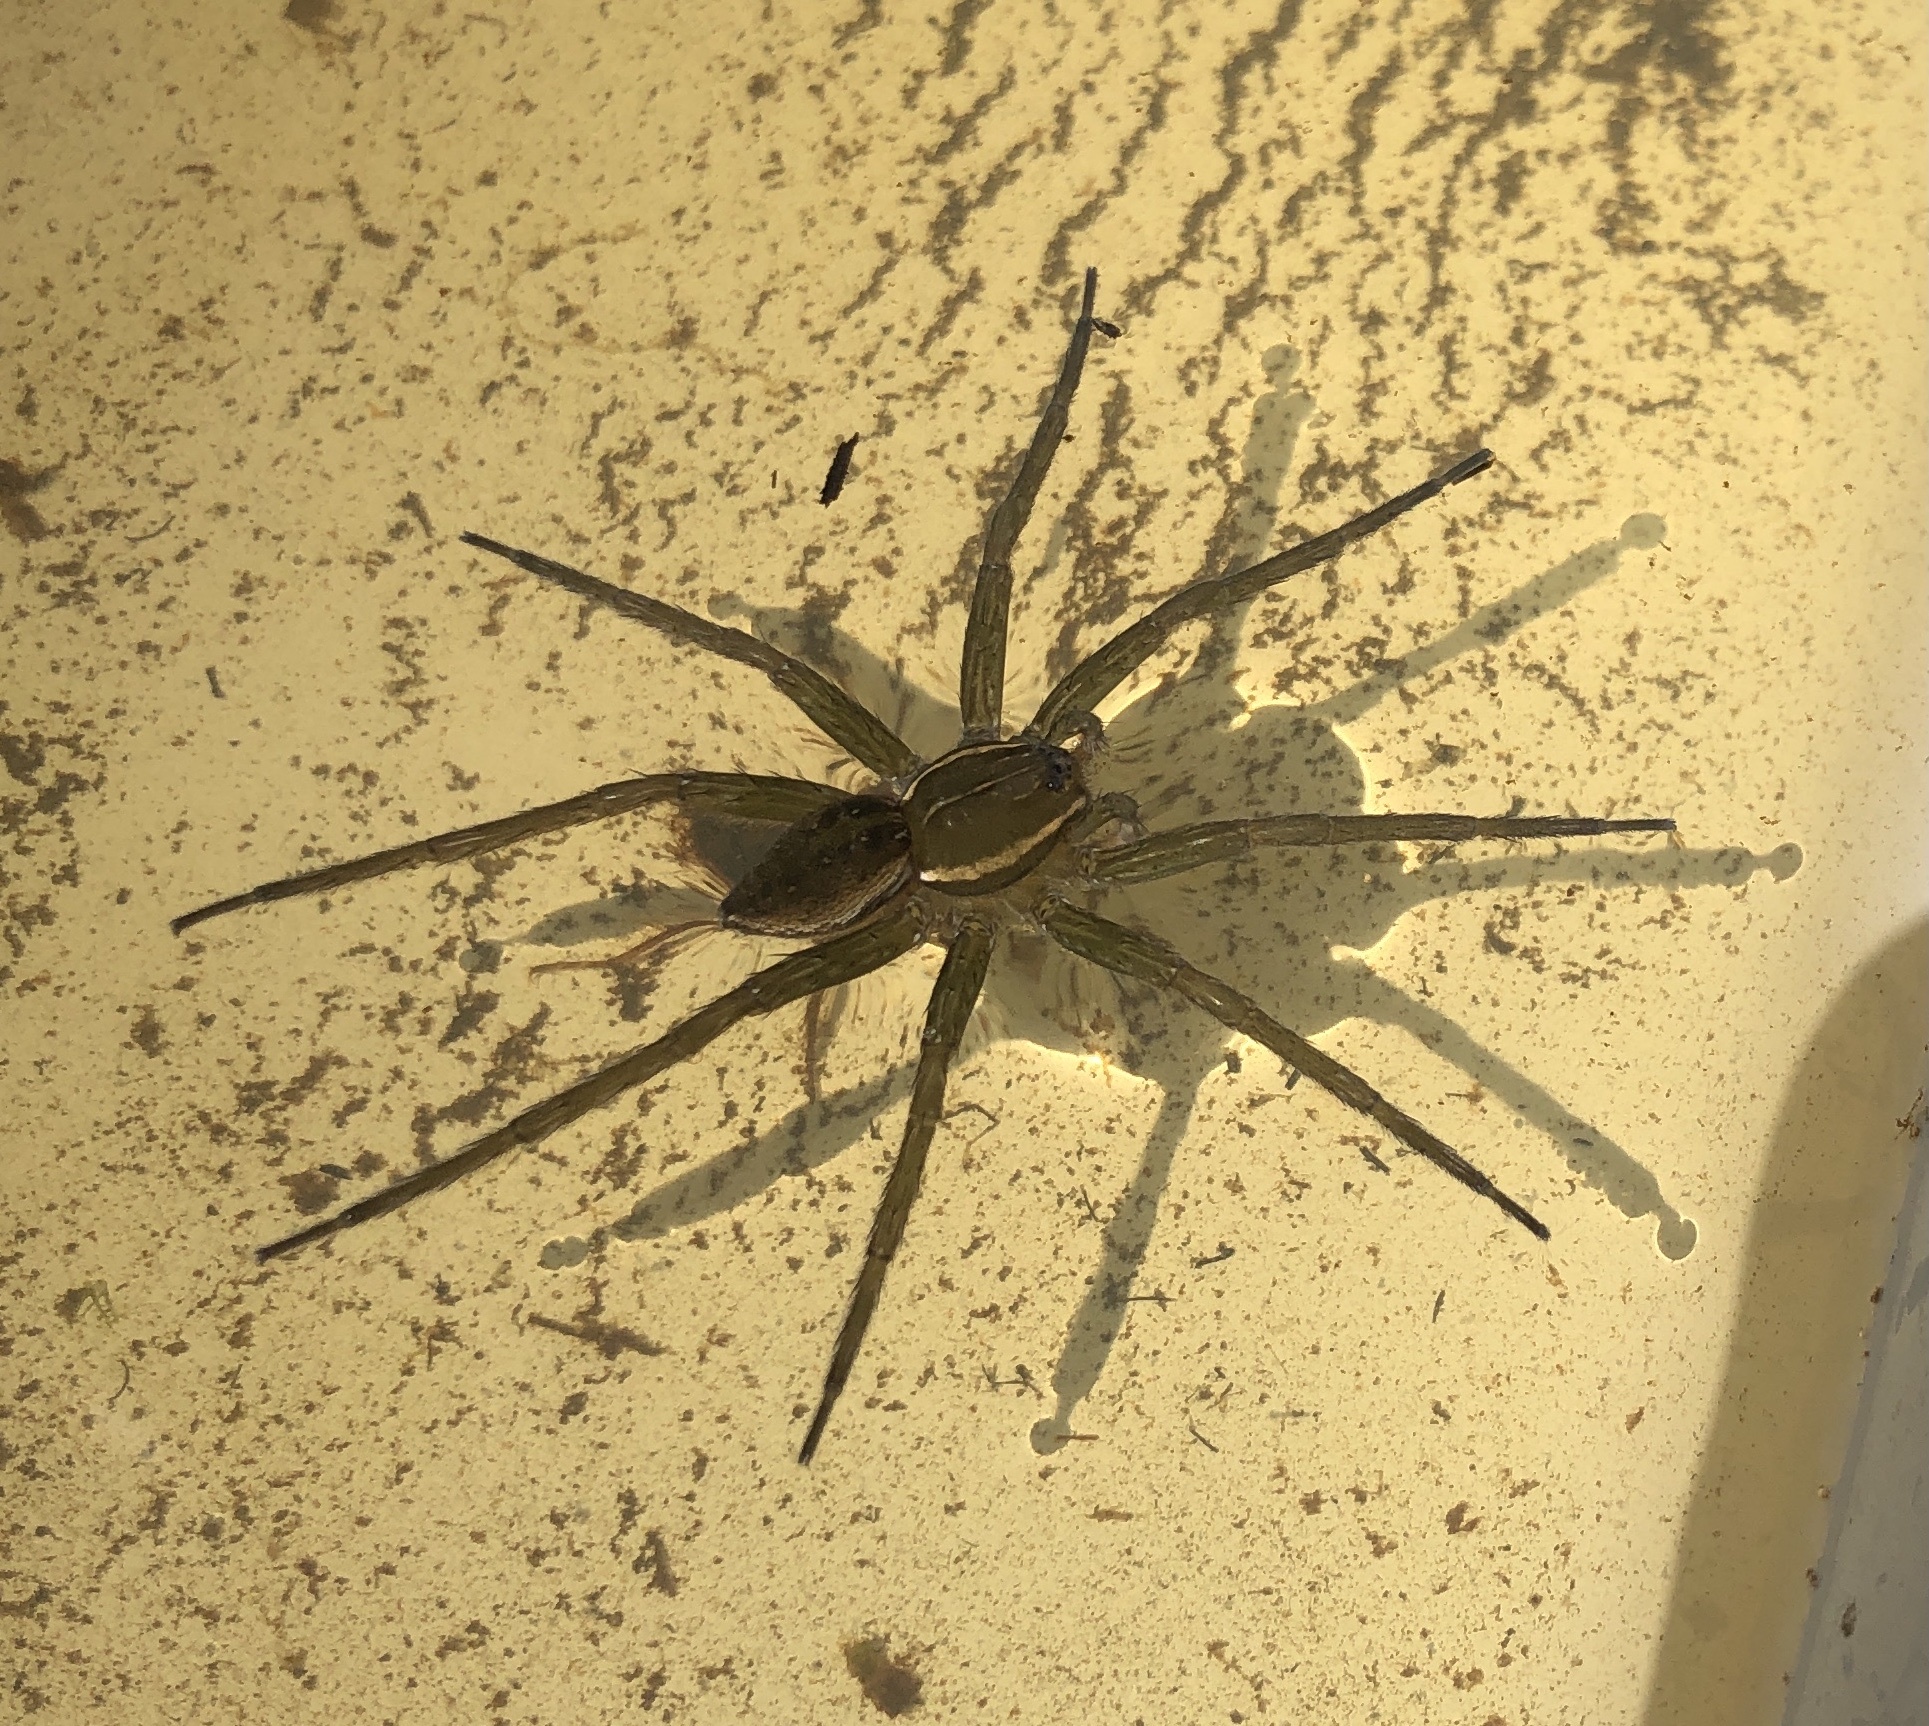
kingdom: Animalia
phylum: Arthropoda
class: Arachnida
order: Araneae
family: Pisauridae
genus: Dolomedes
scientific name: Dolomedes triton
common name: Six-spotted fishing spider
